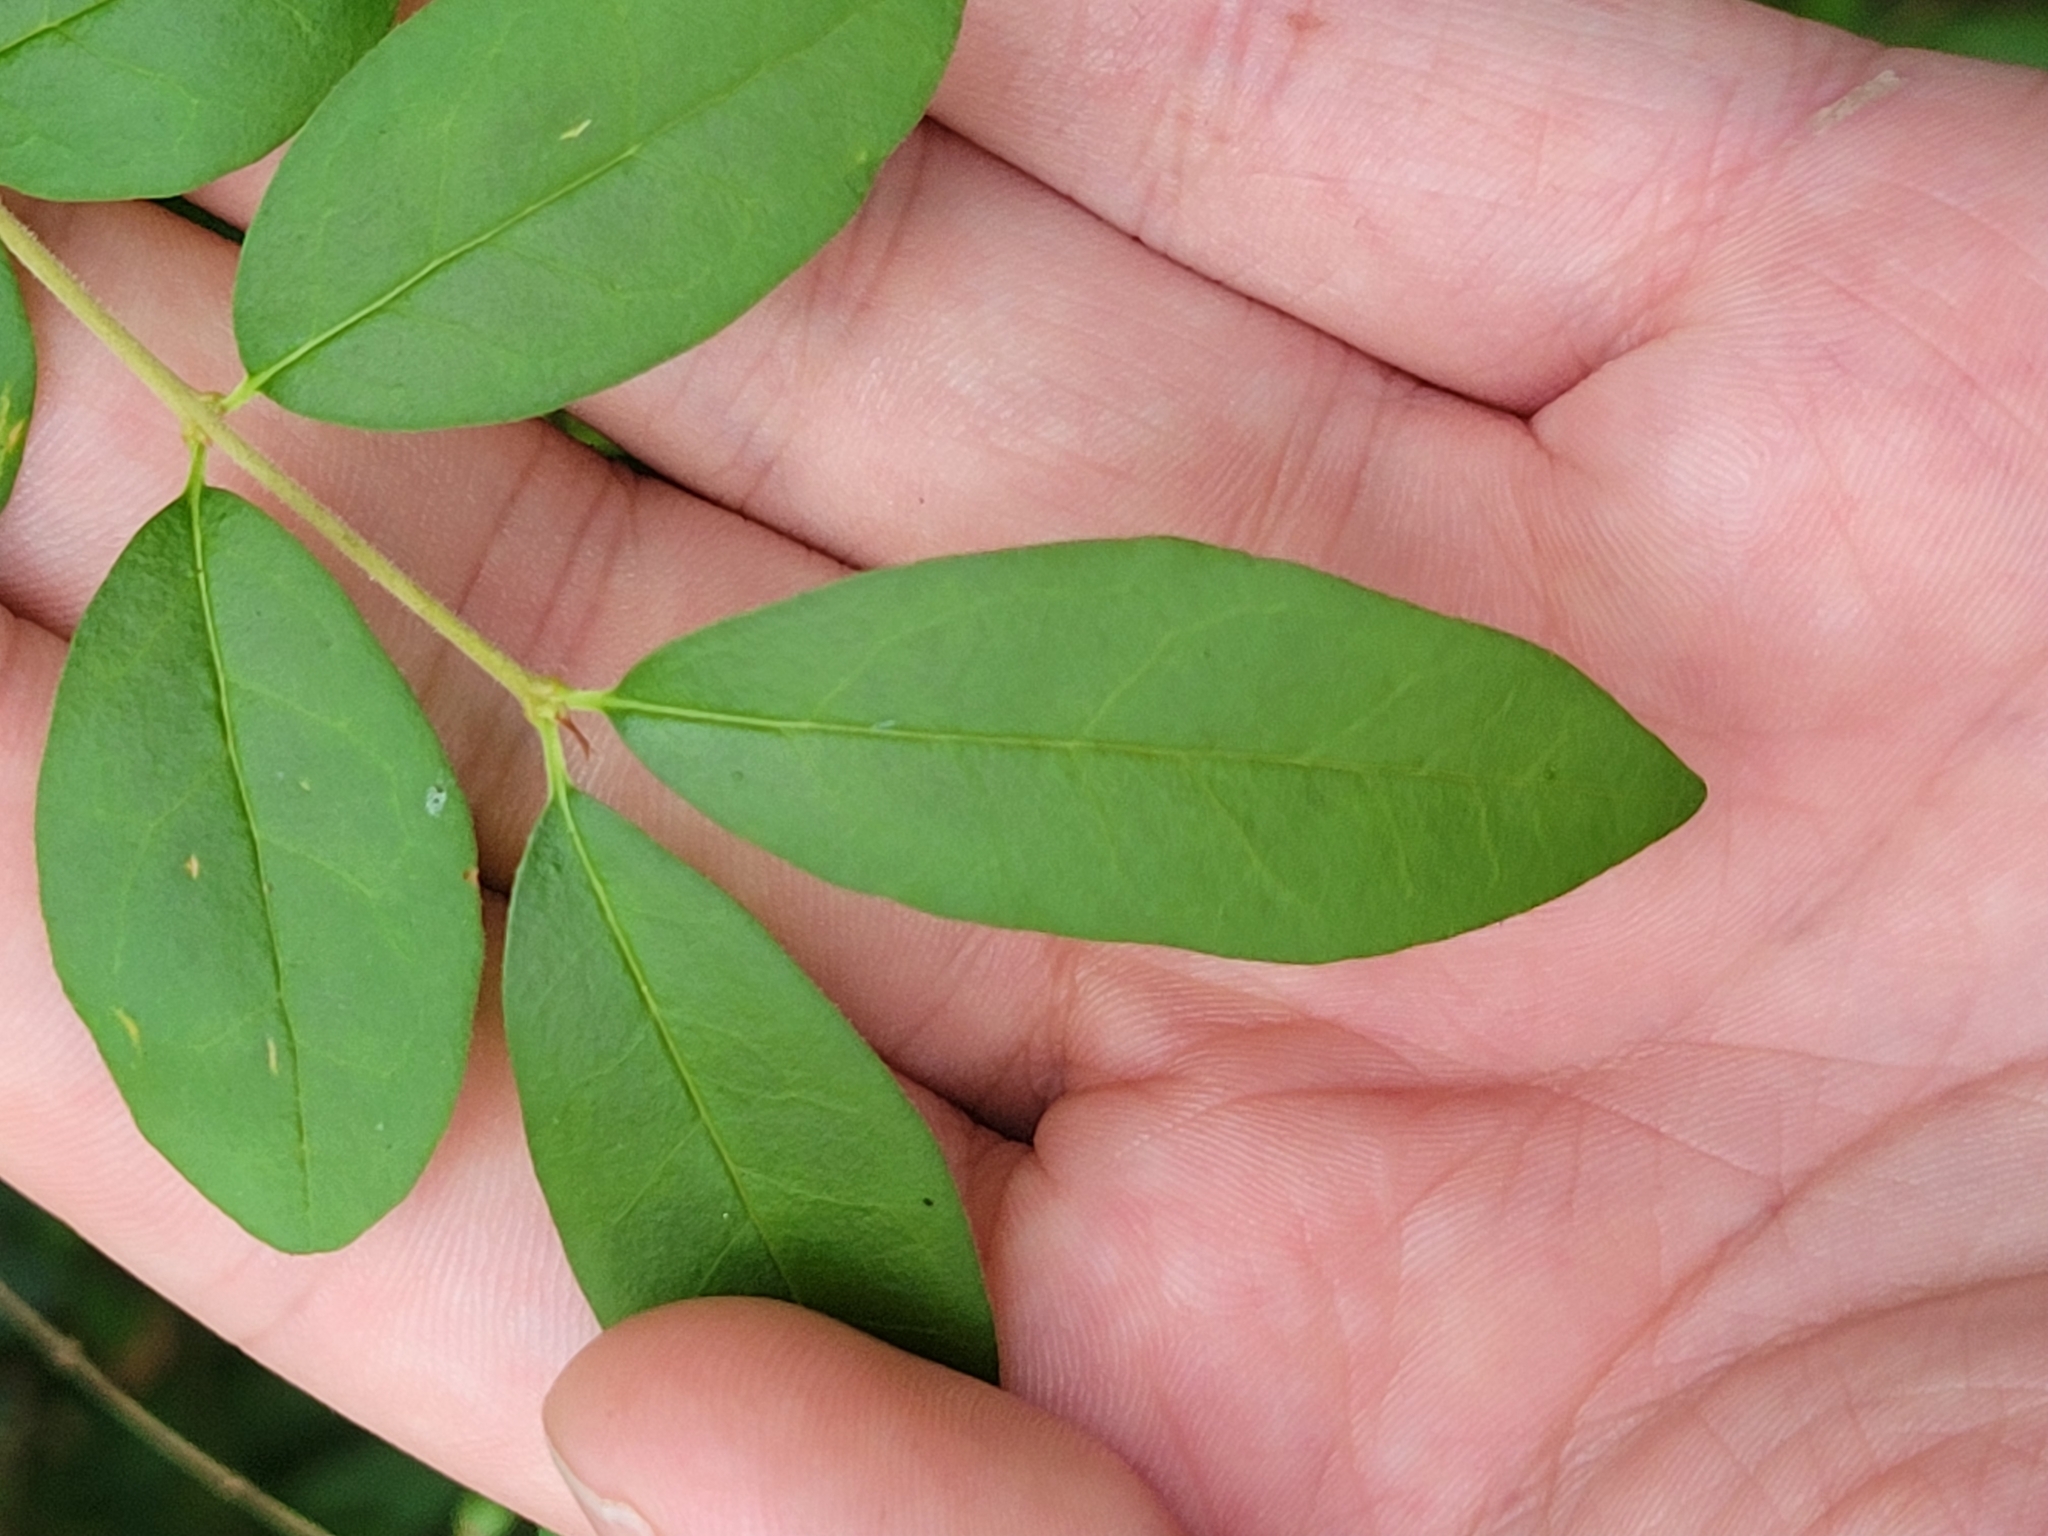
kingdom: Plantae
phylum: Tracheophyta
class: Magnoliopsida
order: Lamiales
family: Oleaceae
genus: Ligustrum
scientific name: Ligustrum obtusifolium
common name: Border privet
